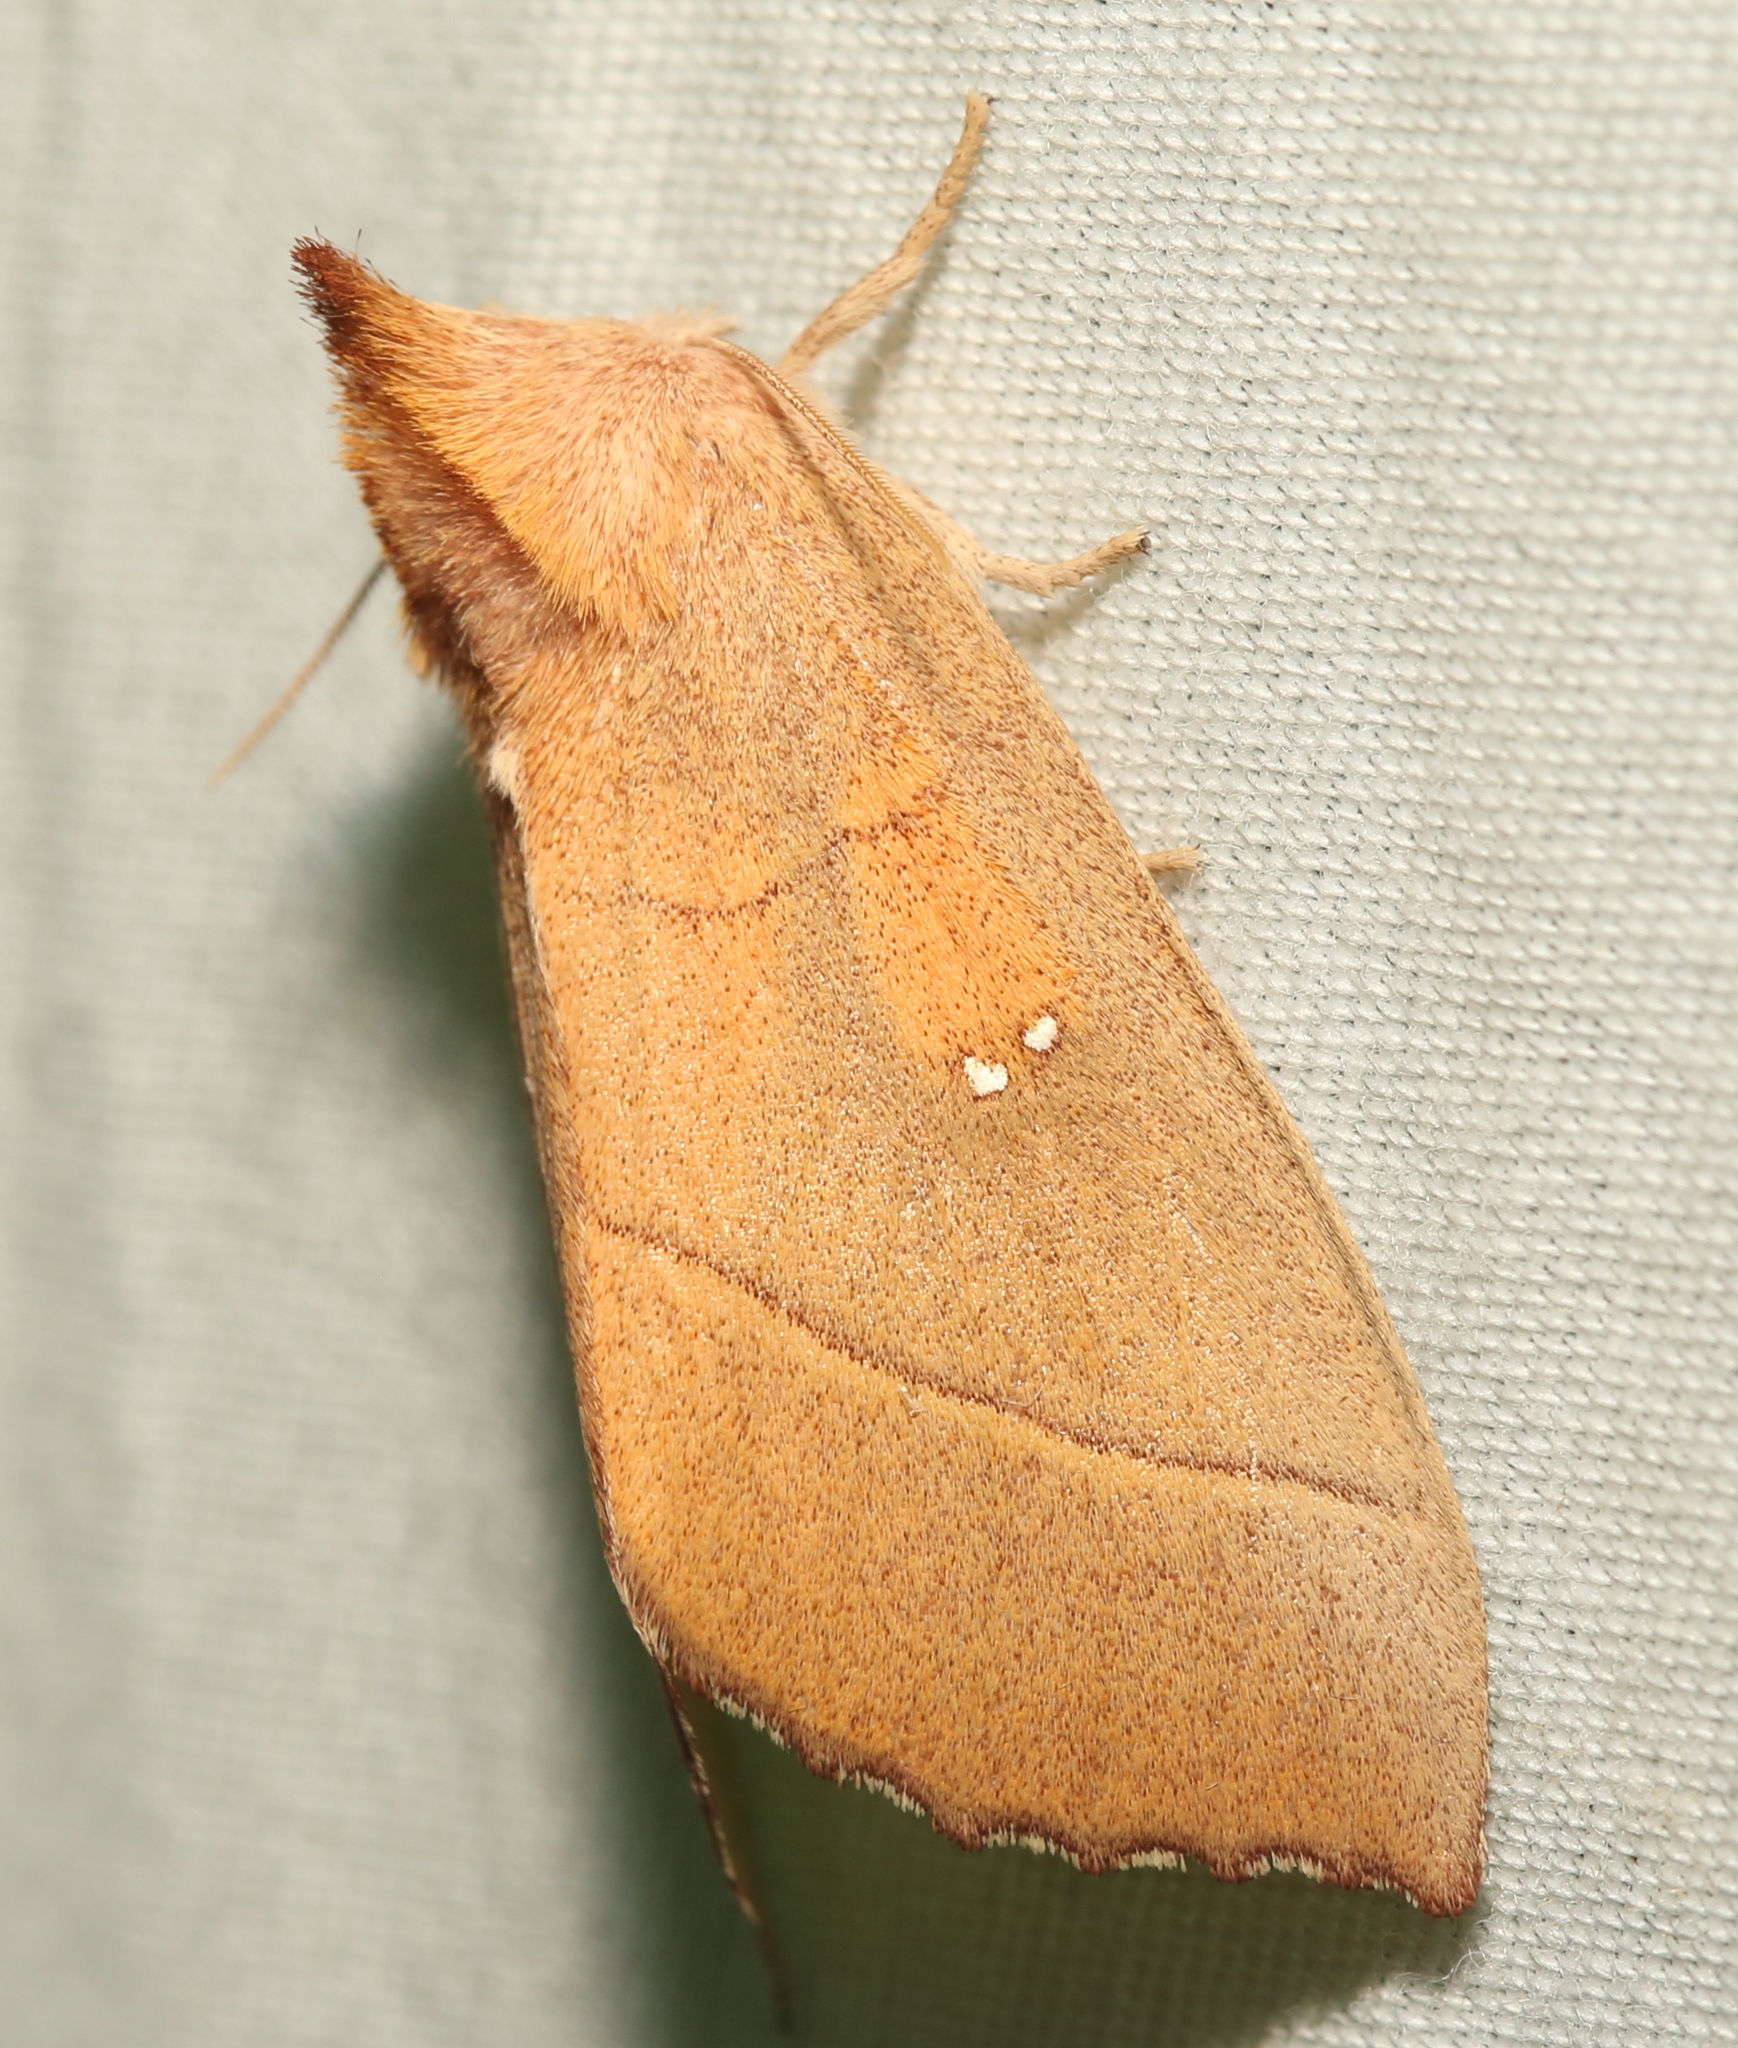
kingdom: Animalia
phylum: Arthropoda
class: Insecta
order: Lepidoptera
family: Notodontidae
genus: Nadata
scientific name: Nadata gibbosa
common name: White-dotted prominent
